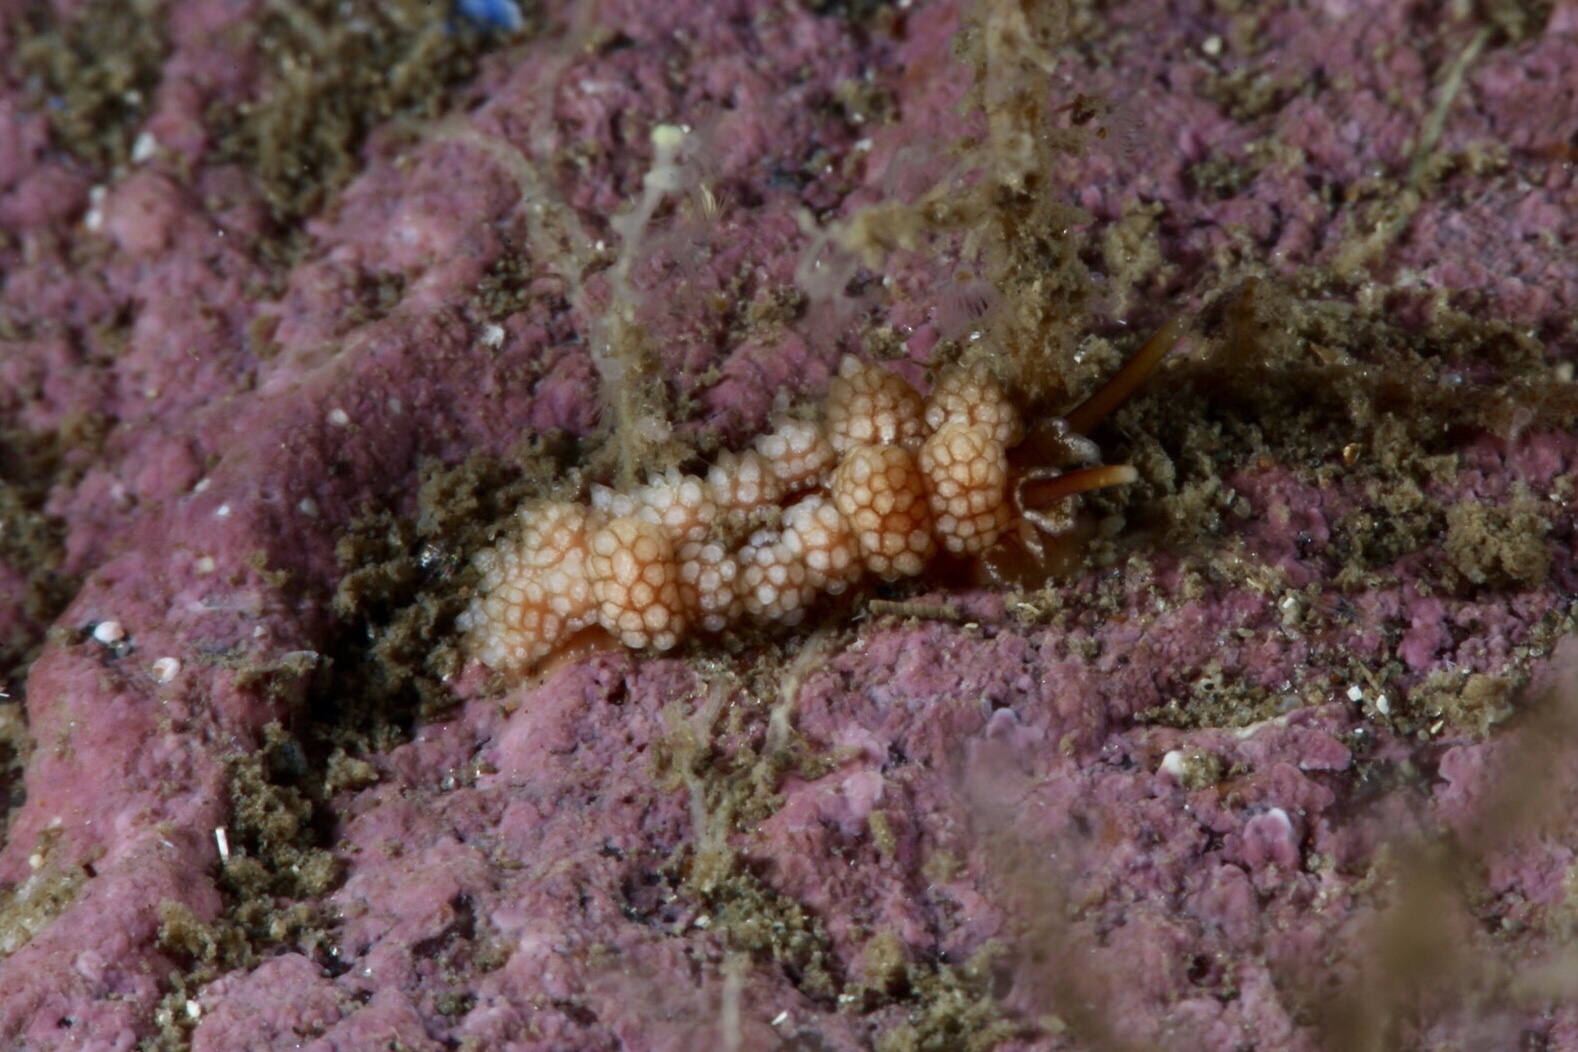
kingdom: Animalia
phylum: Mollusca
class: Gastropoda
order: Nudibranchia
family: Dotidae
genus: Doto
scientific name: Doto fragilis
